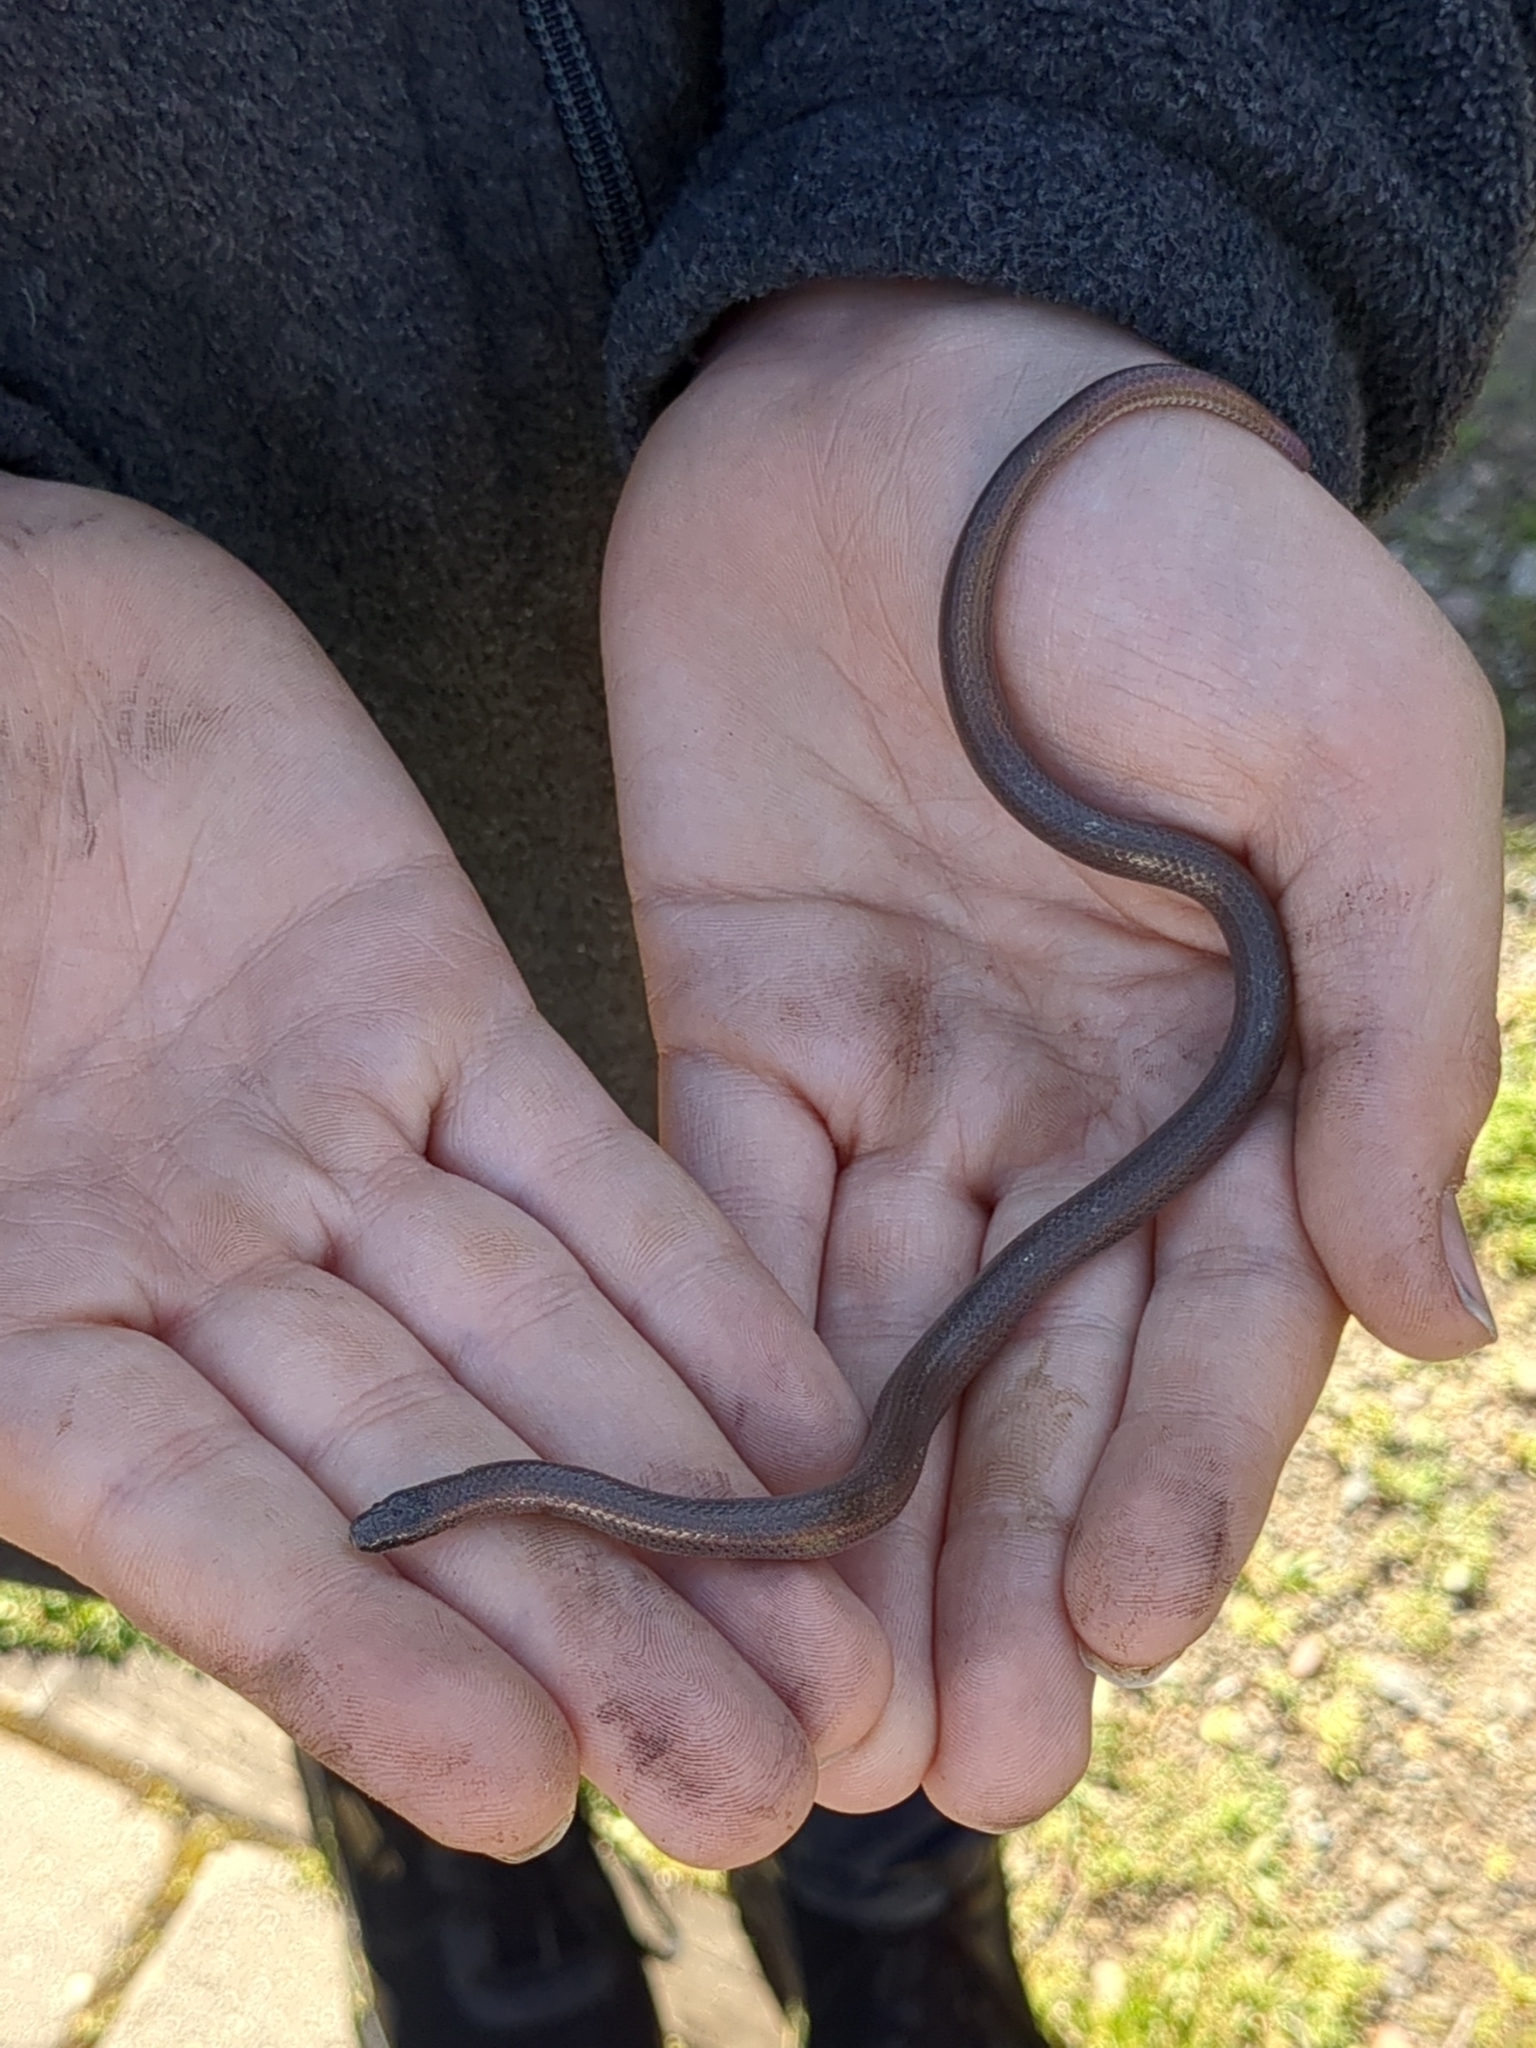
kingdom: Animalia
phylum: Chordata
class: Squamata
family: Colubridae
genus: Contia
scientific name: Contia tenuis
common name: Sharptail snake
